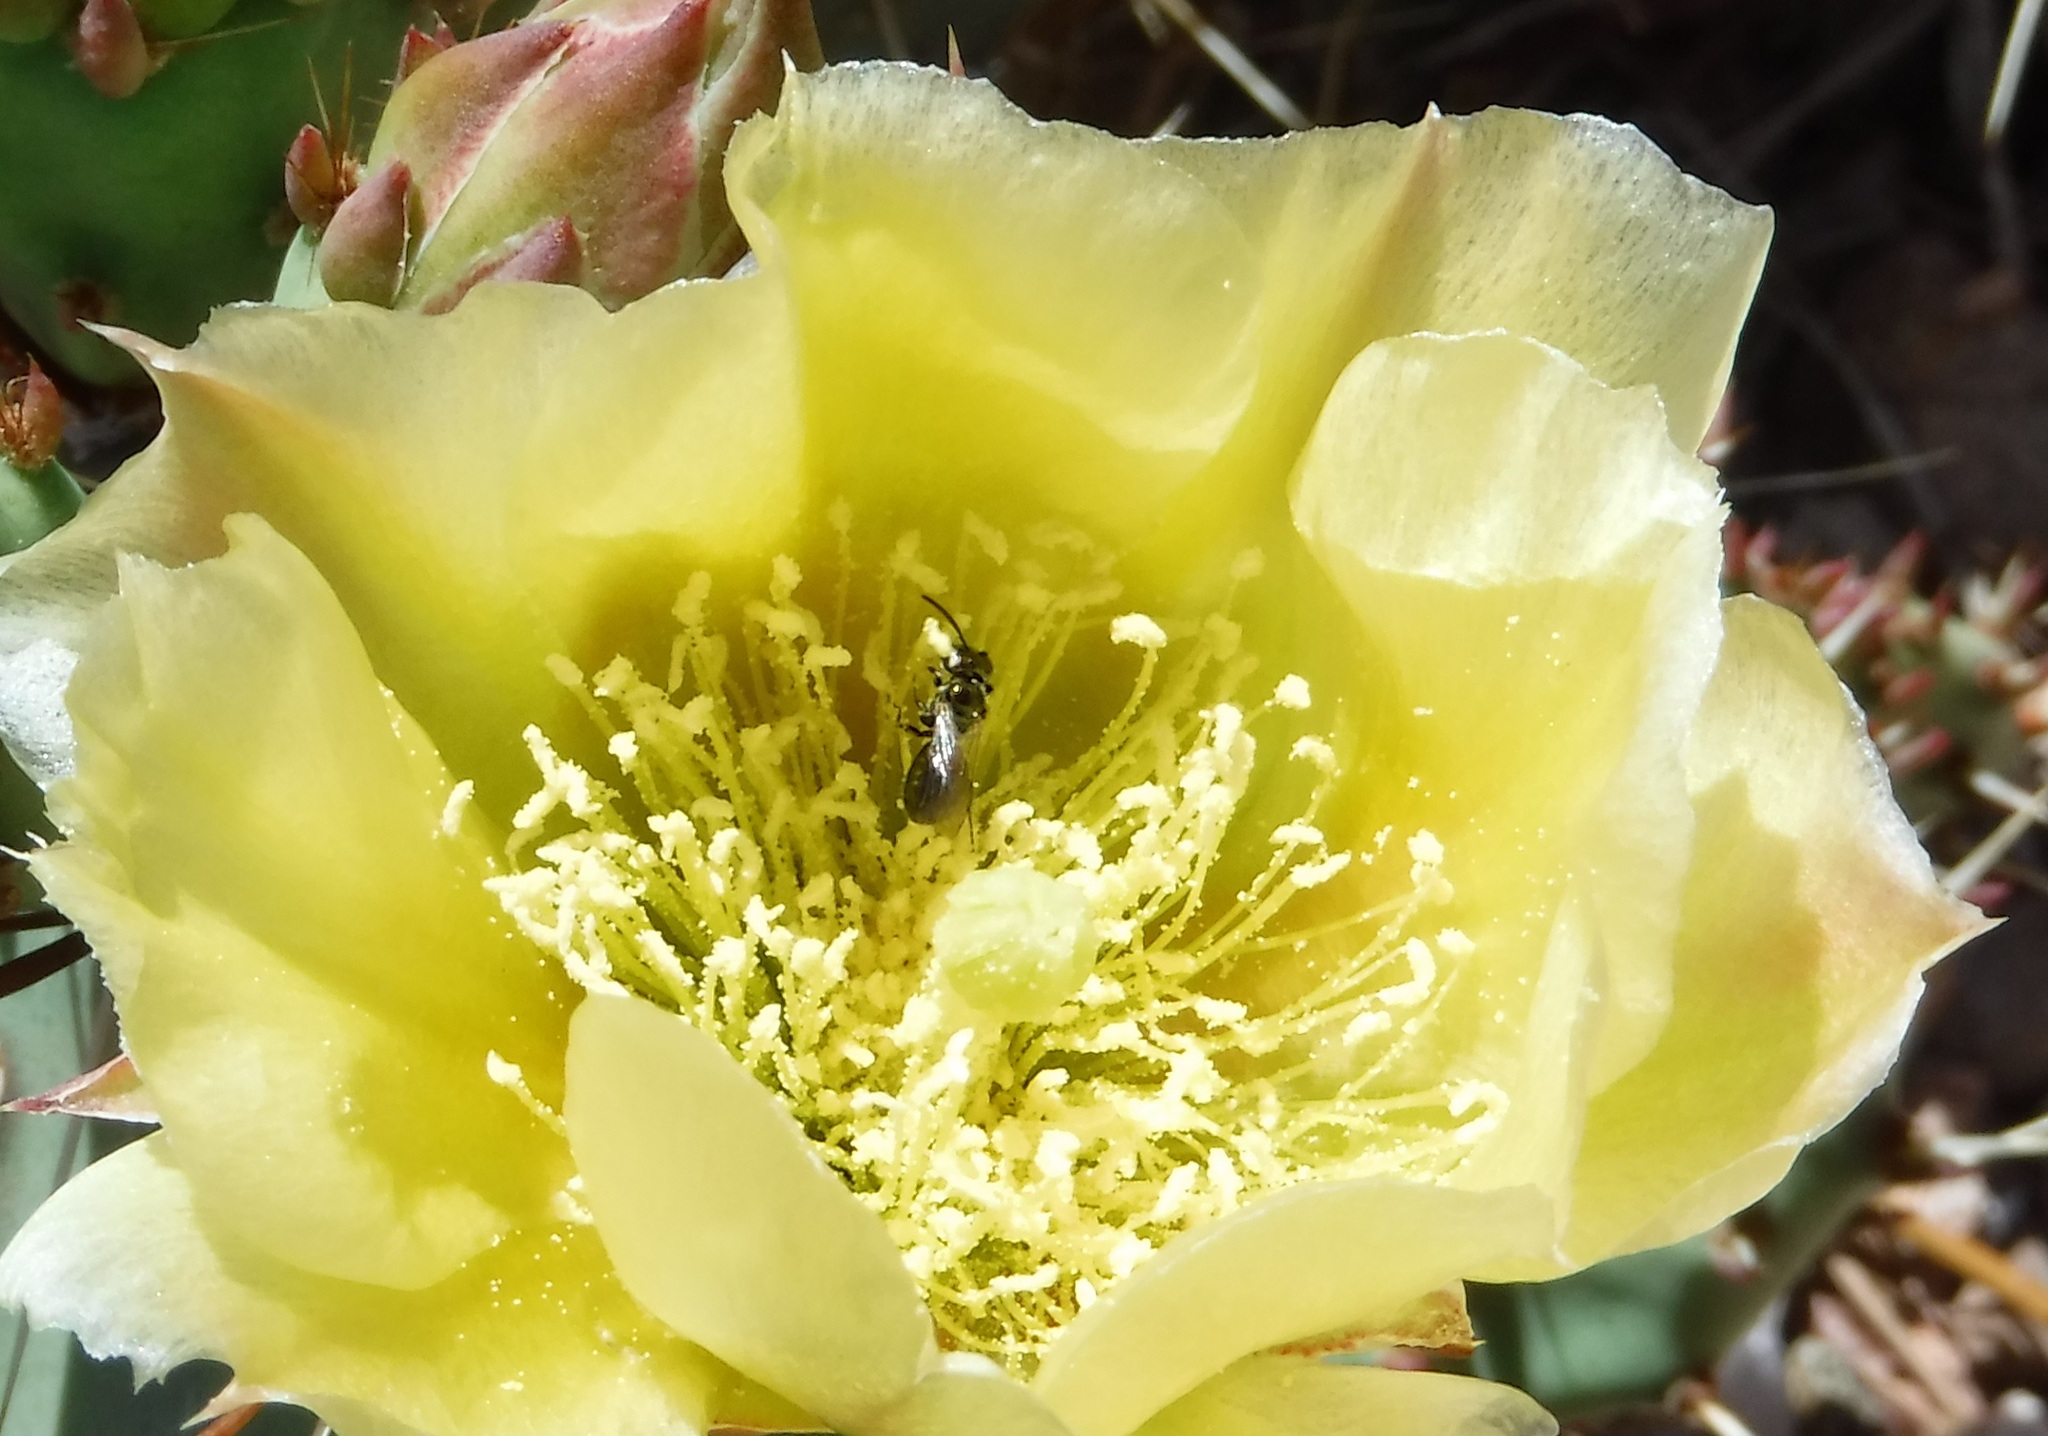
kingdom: Animalia
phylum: Arthropoda
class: Insecta
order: Hymenoptera
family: Apidae
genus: Zadontomerus
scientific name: Zadontomerus
